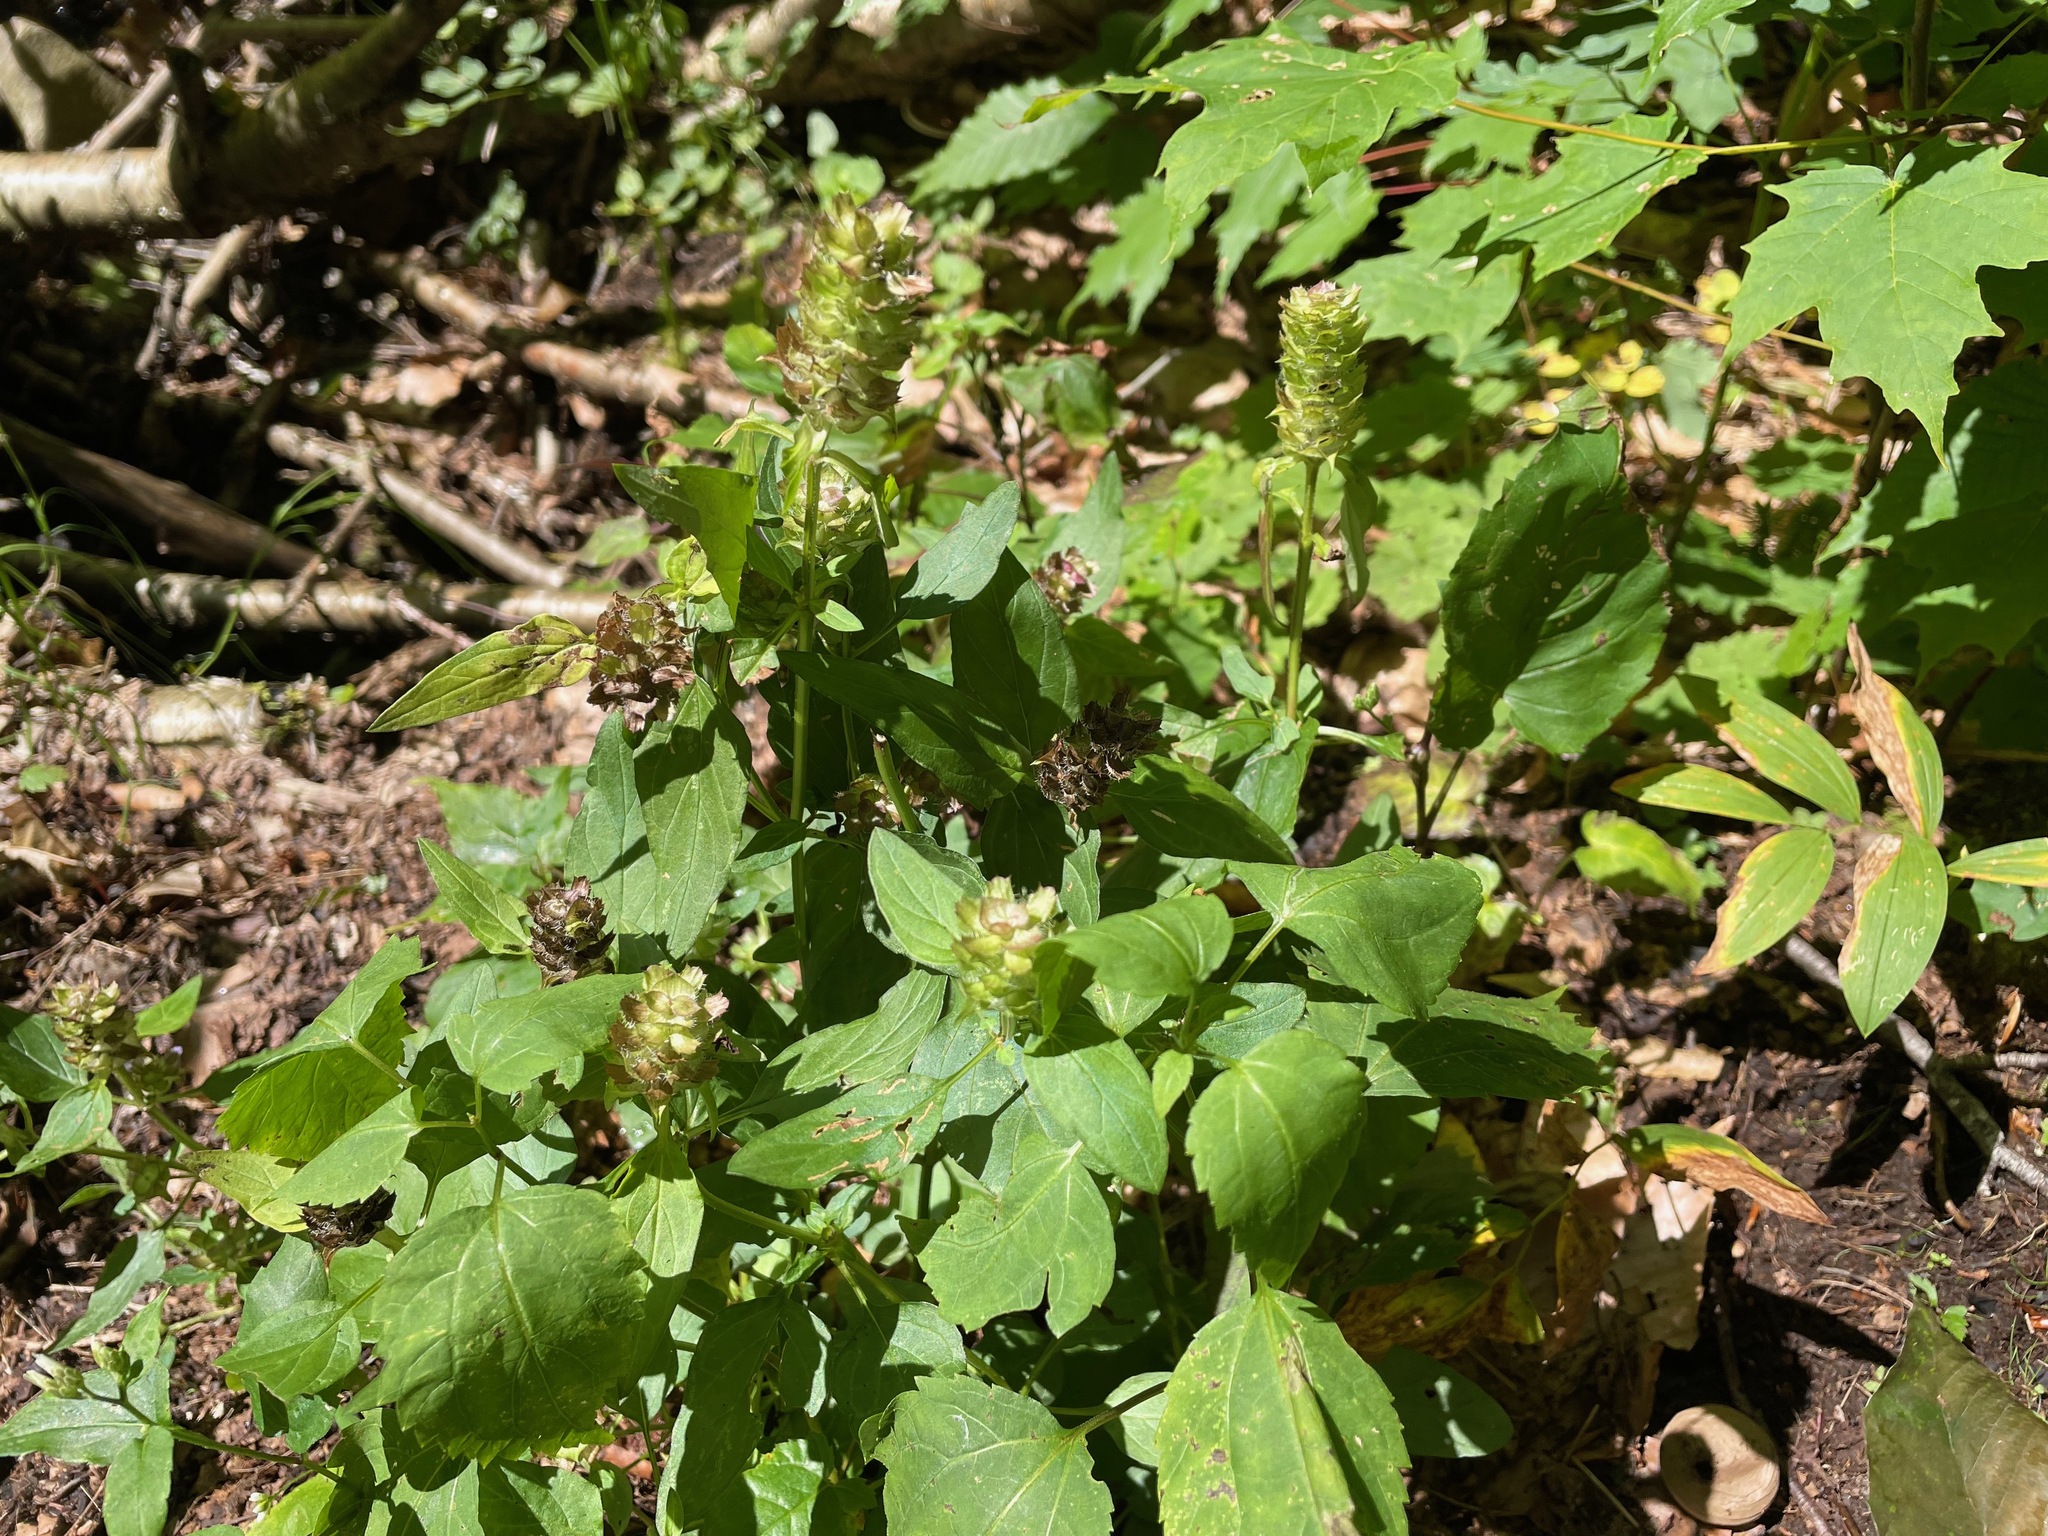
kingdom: Plantae
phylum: Tracheophyta
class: Magnoliopsida
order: Lamiales
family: Lamiaceae
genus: Prunella
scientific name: Prunella vulgaris
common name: Heal-all
